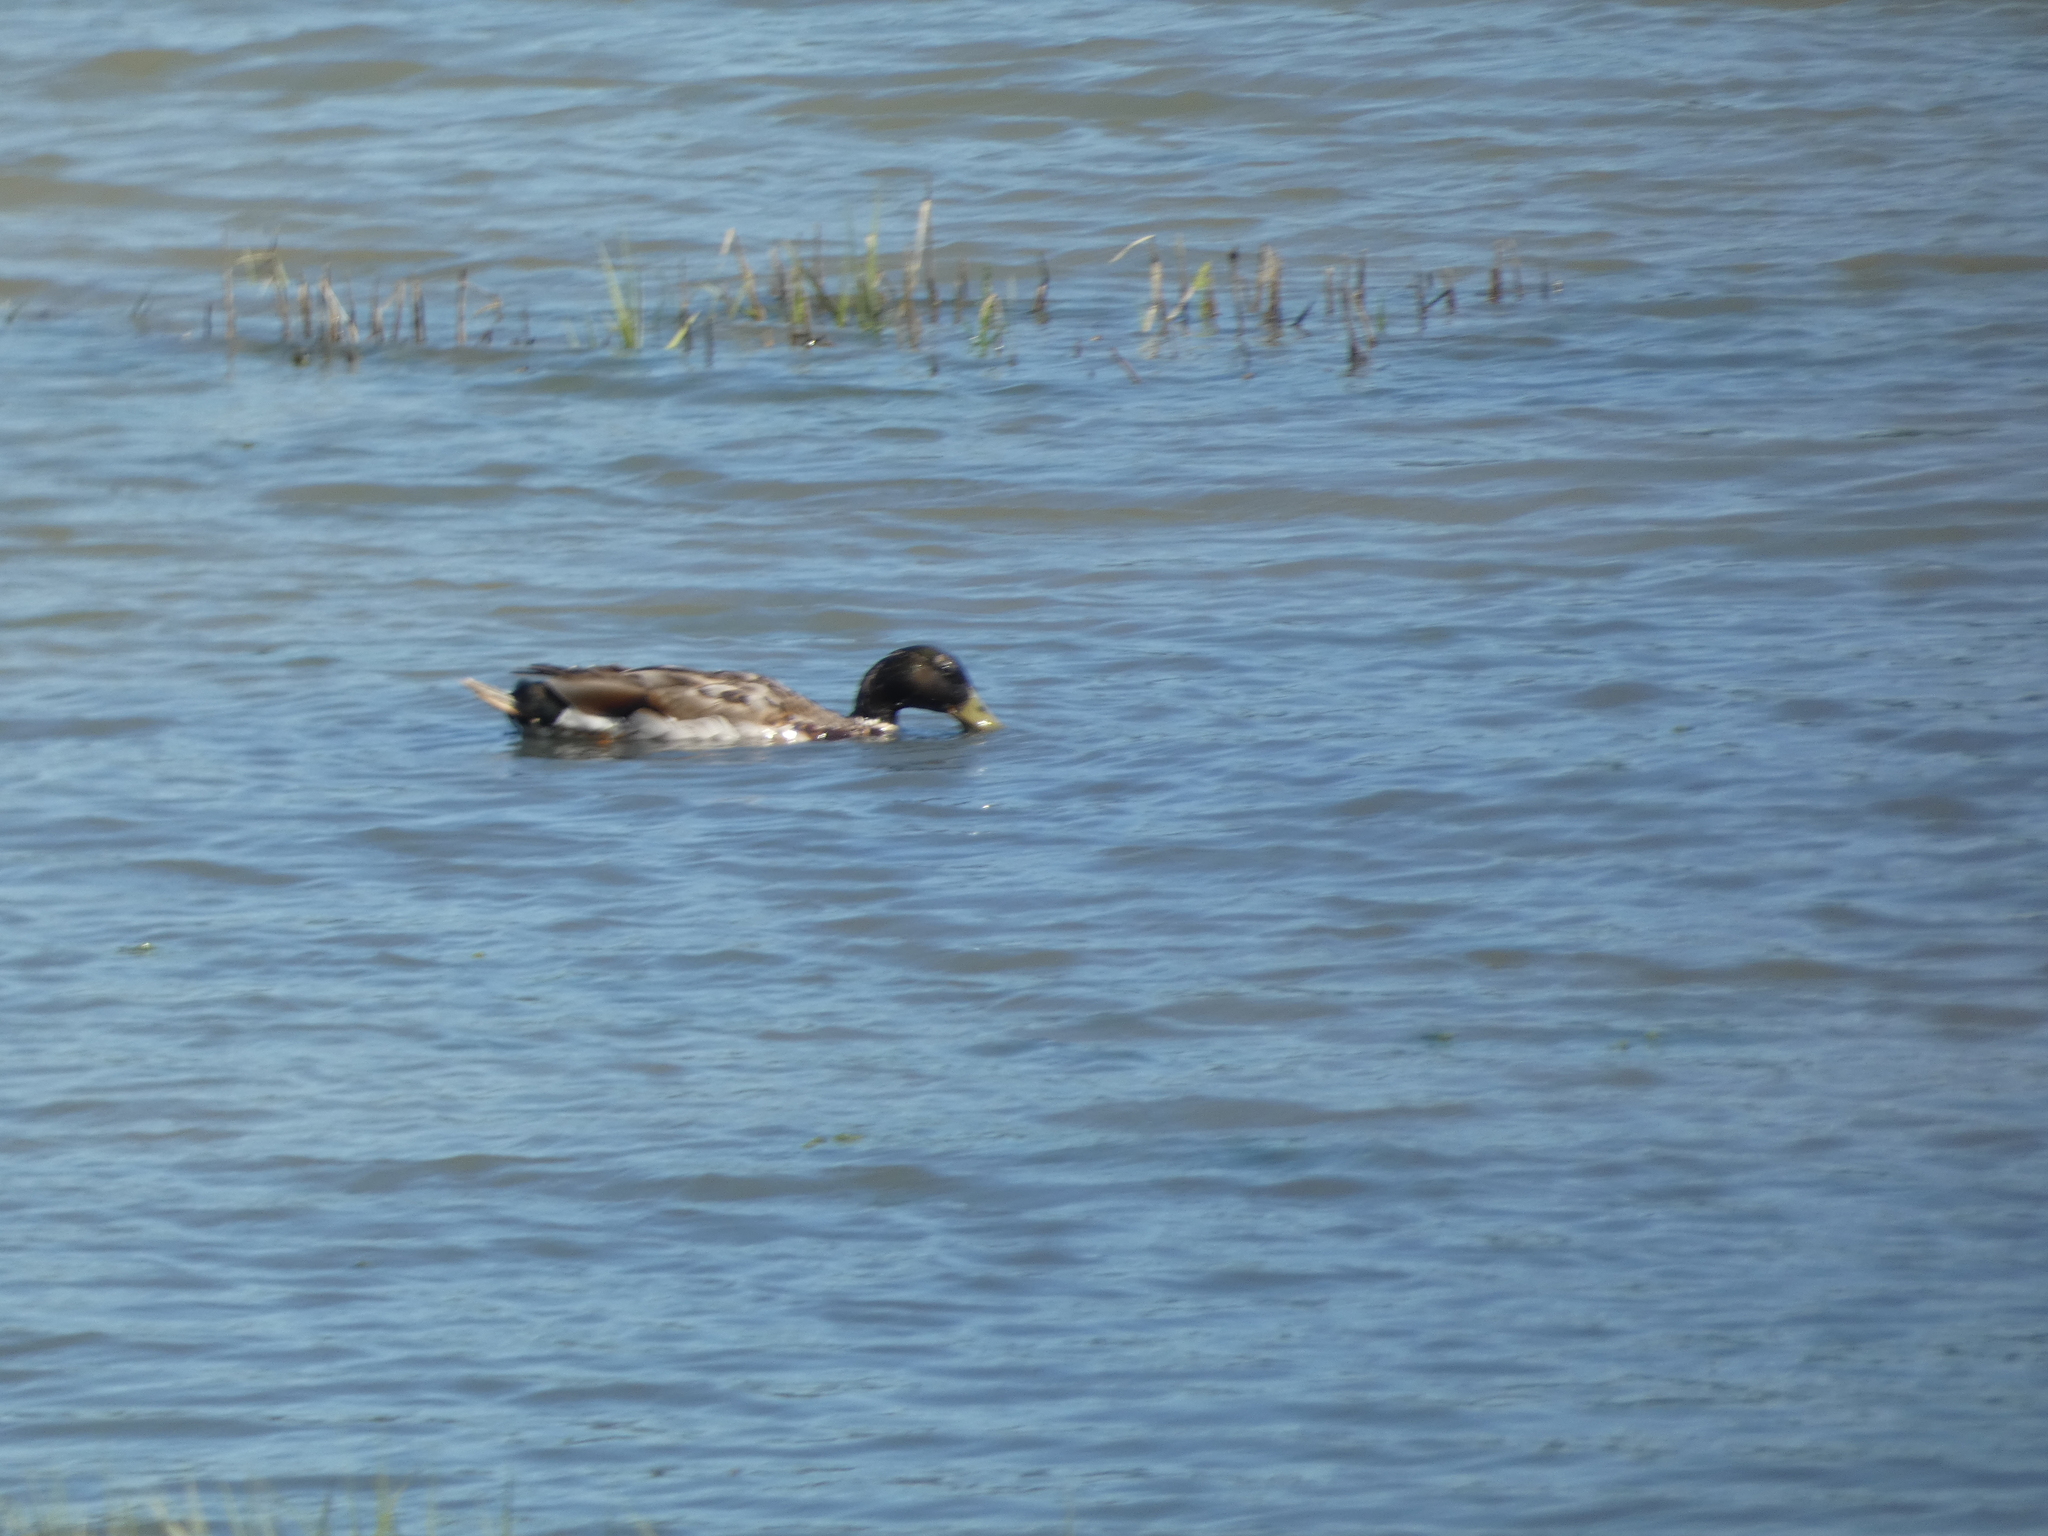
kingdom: Animalia
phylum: Chordata
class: Aves
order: Anseriformes
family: Anatidae
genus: Anas
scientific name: Anas platyrhynchos
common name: Mallard
